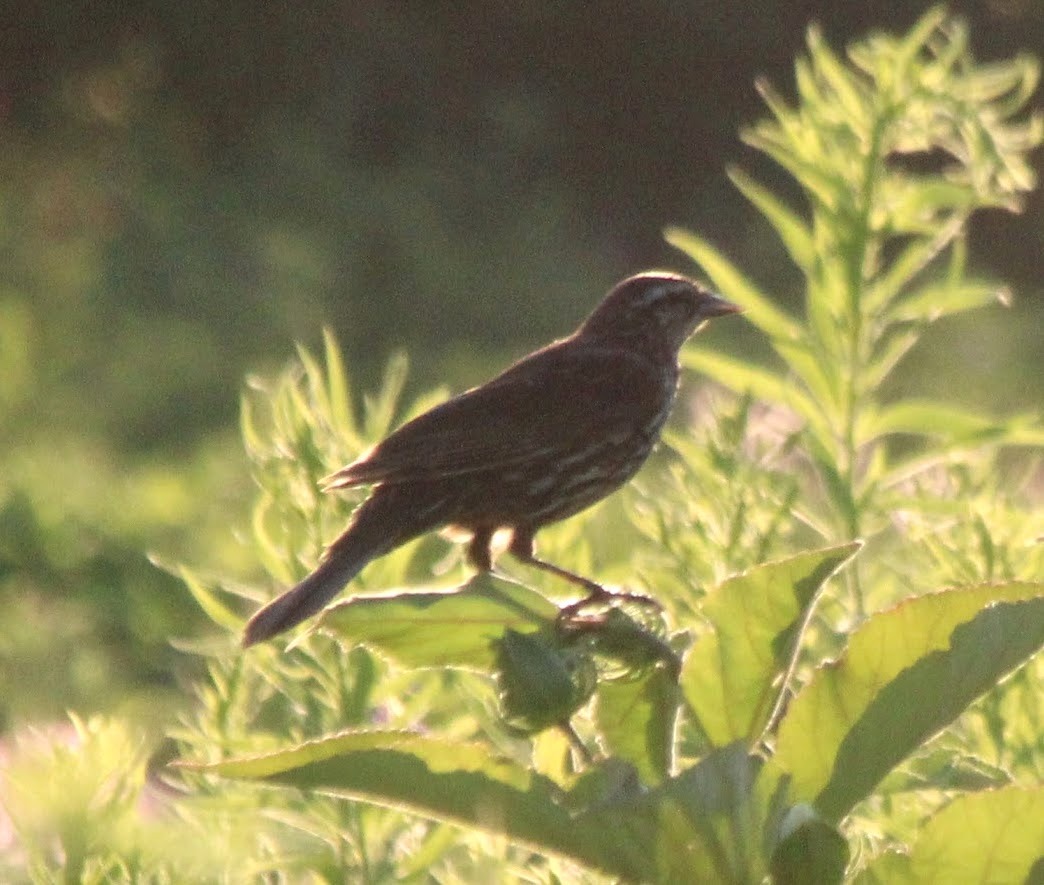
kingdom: Animalia
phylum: Chordata
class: Aves
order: Passeriformes
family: Icteridae
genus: Agelaius
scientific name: Agelaius phoeniceus
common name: Red-winged blackbird
